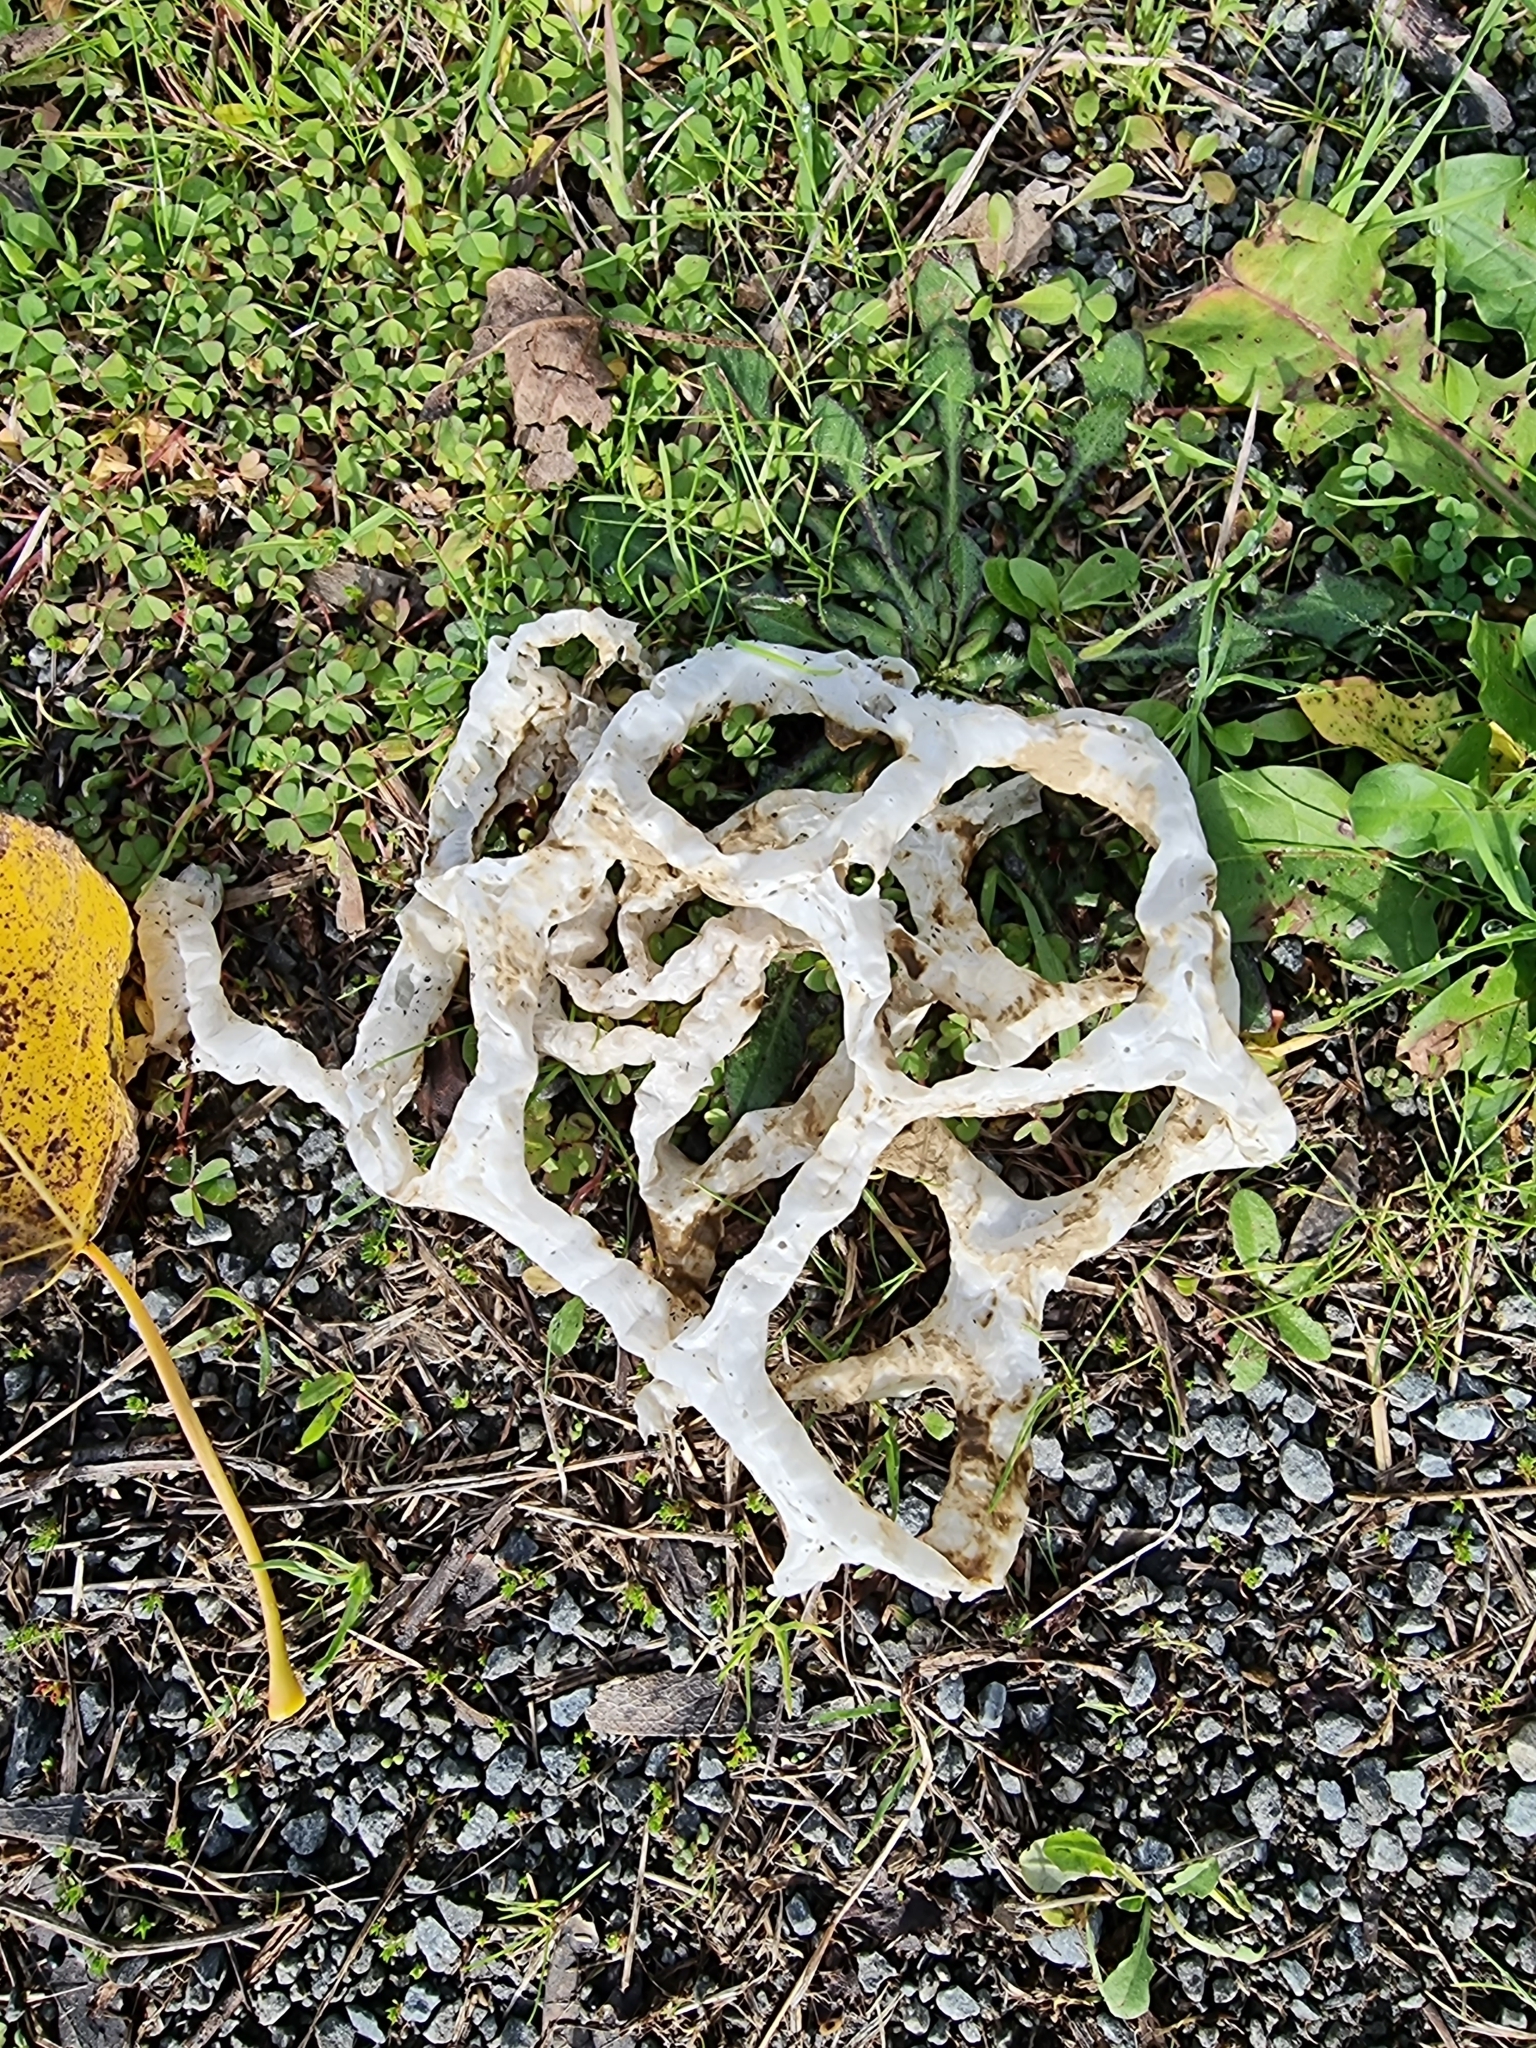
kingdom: Fungi
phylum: Basidiomycota
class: Agaricomycetes
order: Phallales
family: Phallaceae
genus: Ileodictyon
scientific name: Ileodictyon cibarium
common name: Basket fungus
